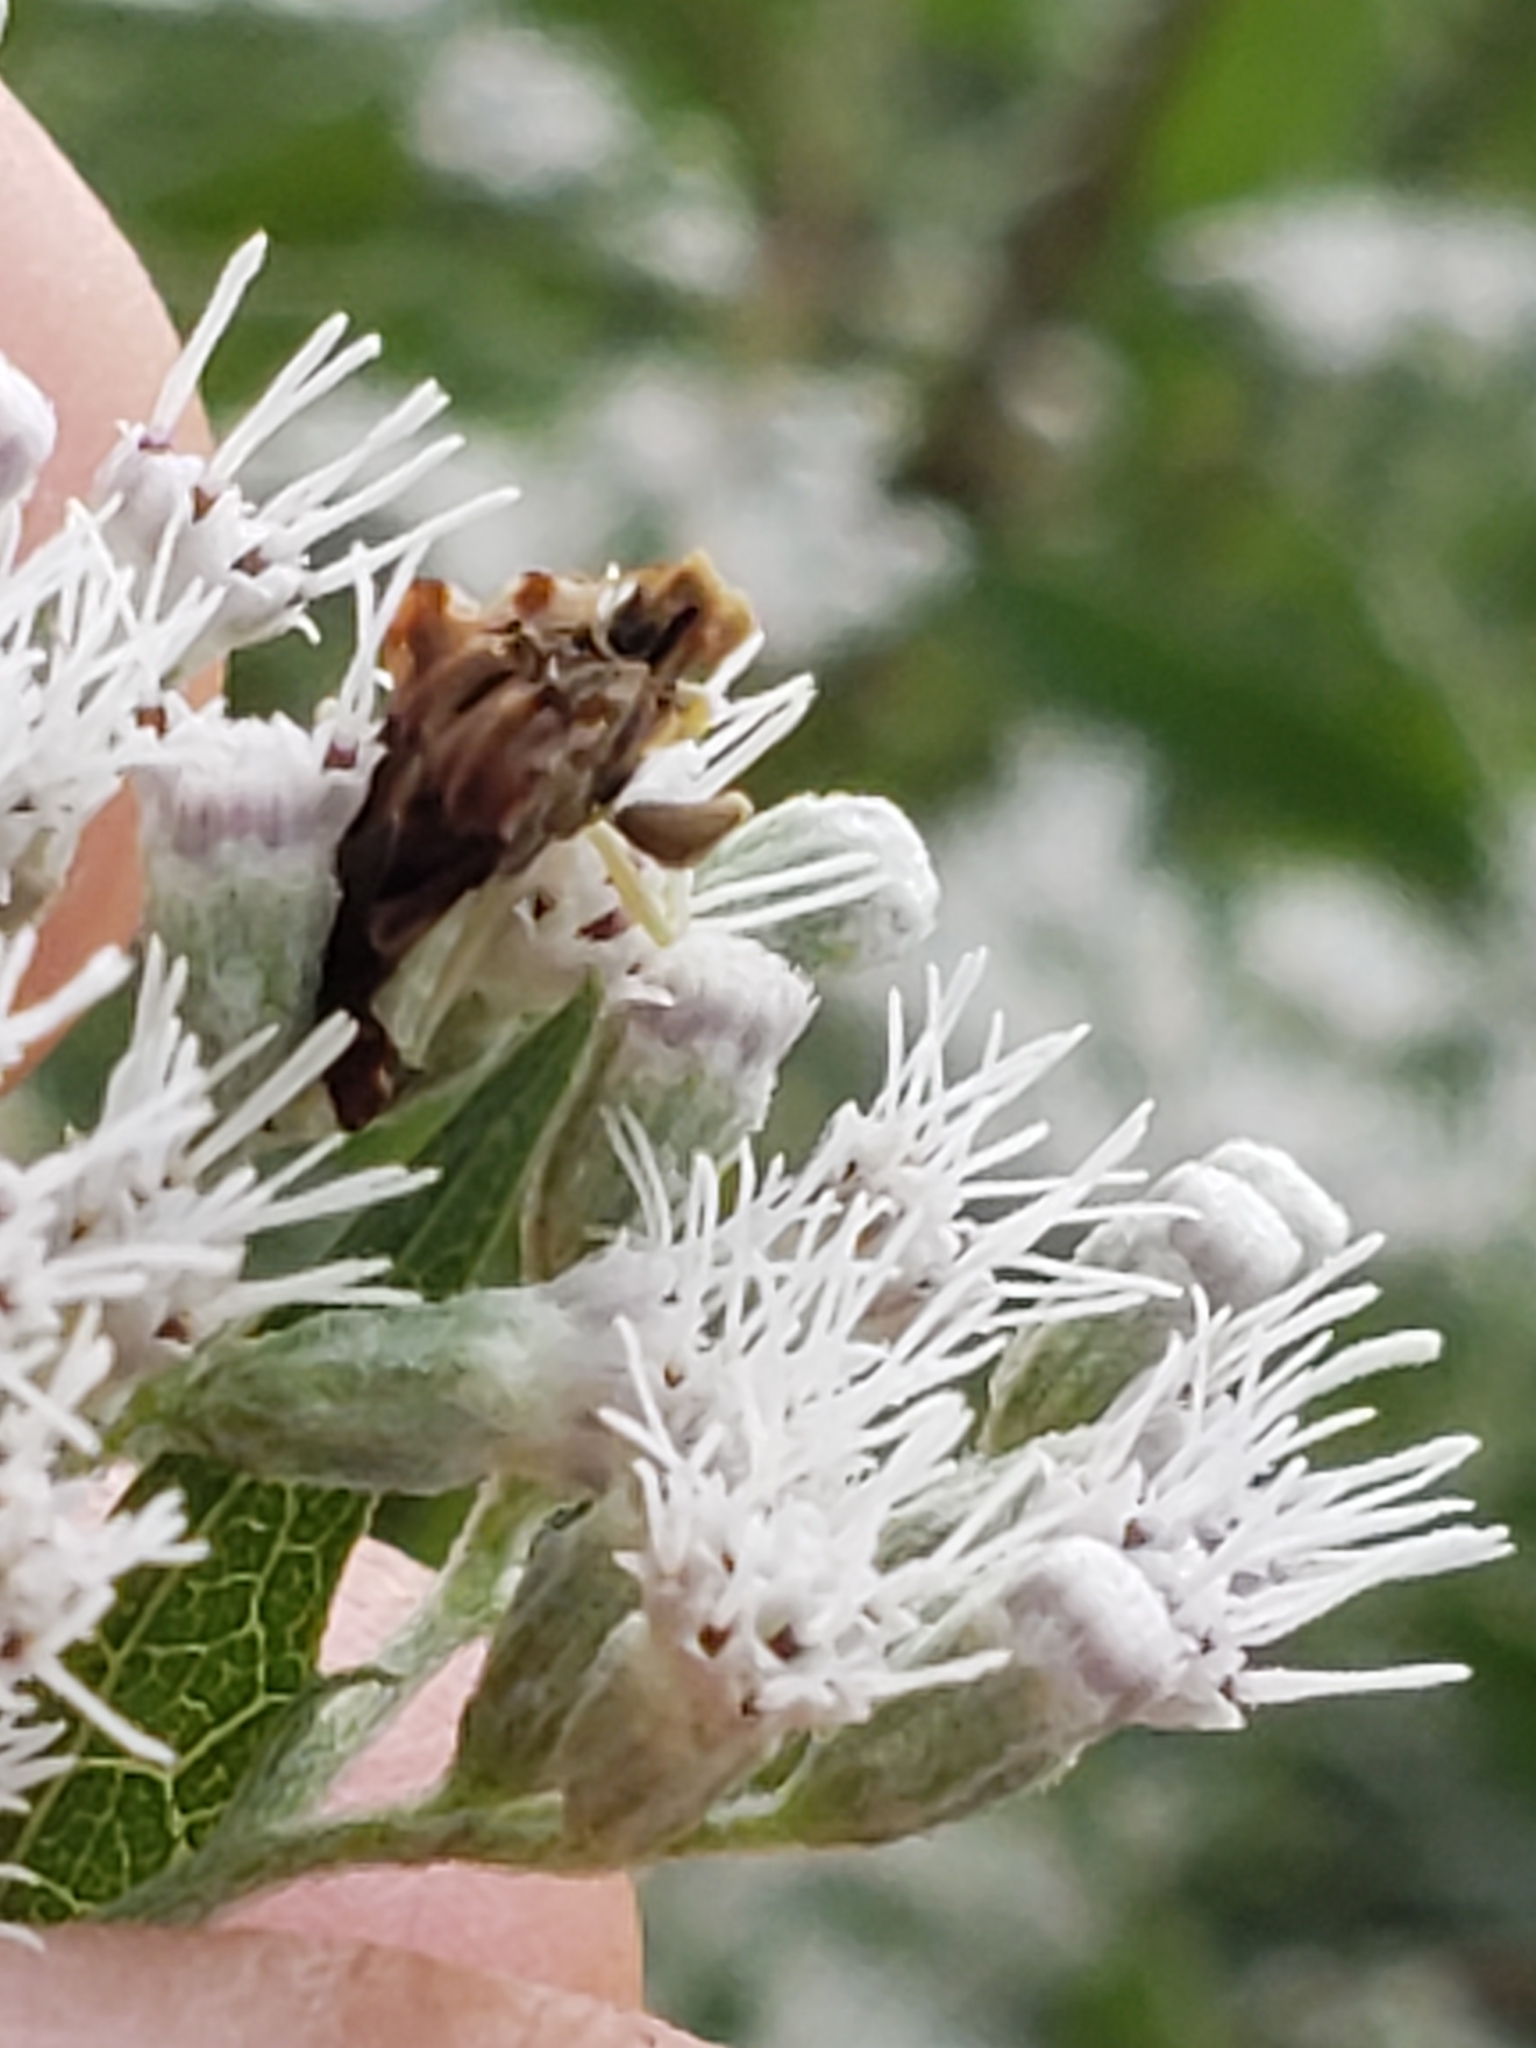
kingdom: Animalia
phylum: Arthropoda
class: Insecta
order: Hemiptera
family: Reduviidae
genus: Phymata
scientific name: Phymata fasciata
